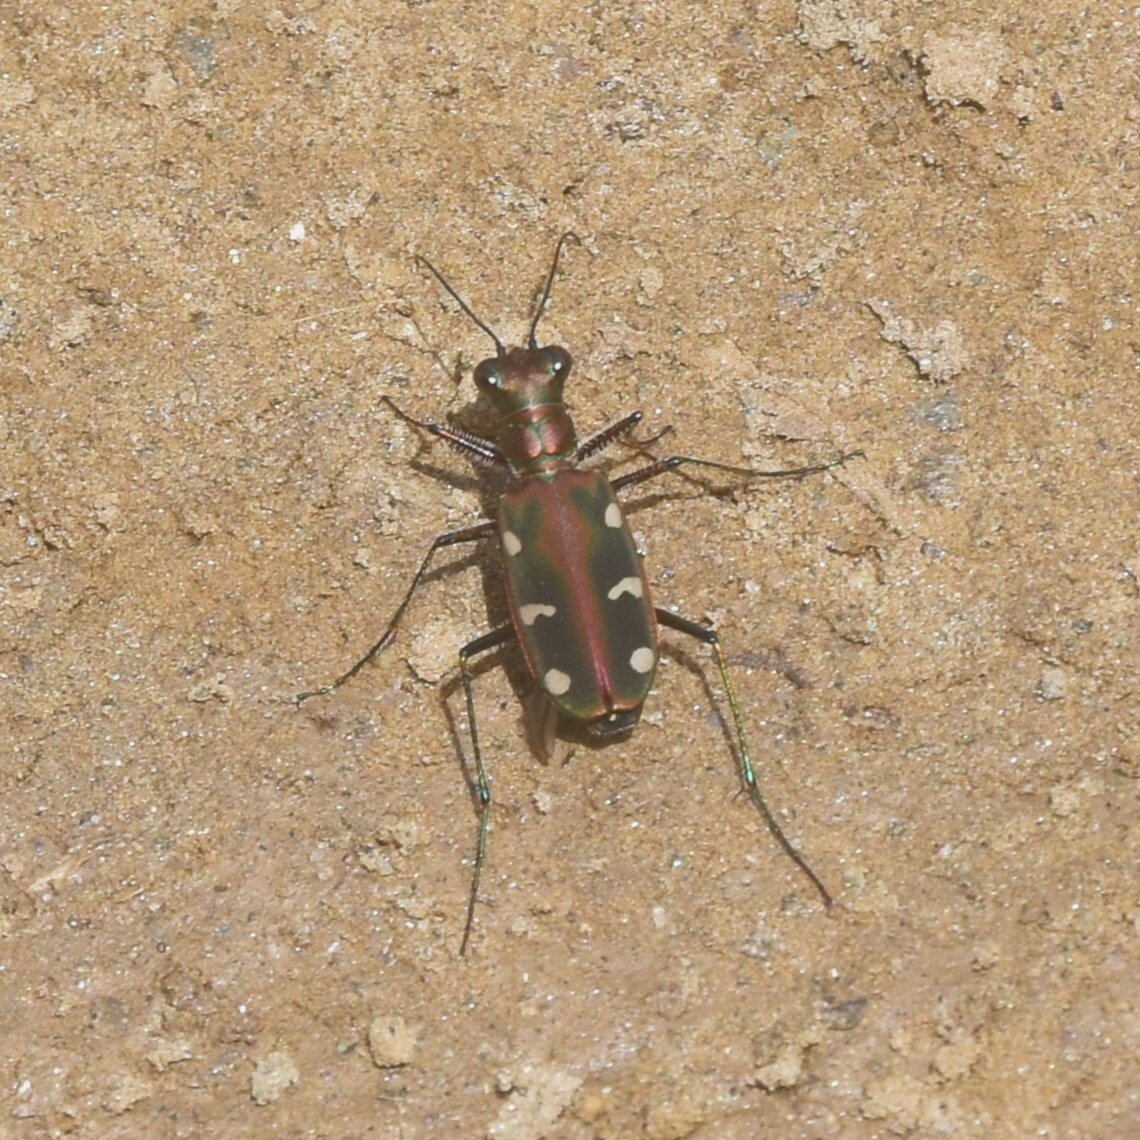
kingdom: Animalia
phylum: Arthropoda
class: Insecta
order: Coleoptera
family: Carabidae
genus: Cicindela
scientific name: Cicindela virgula
